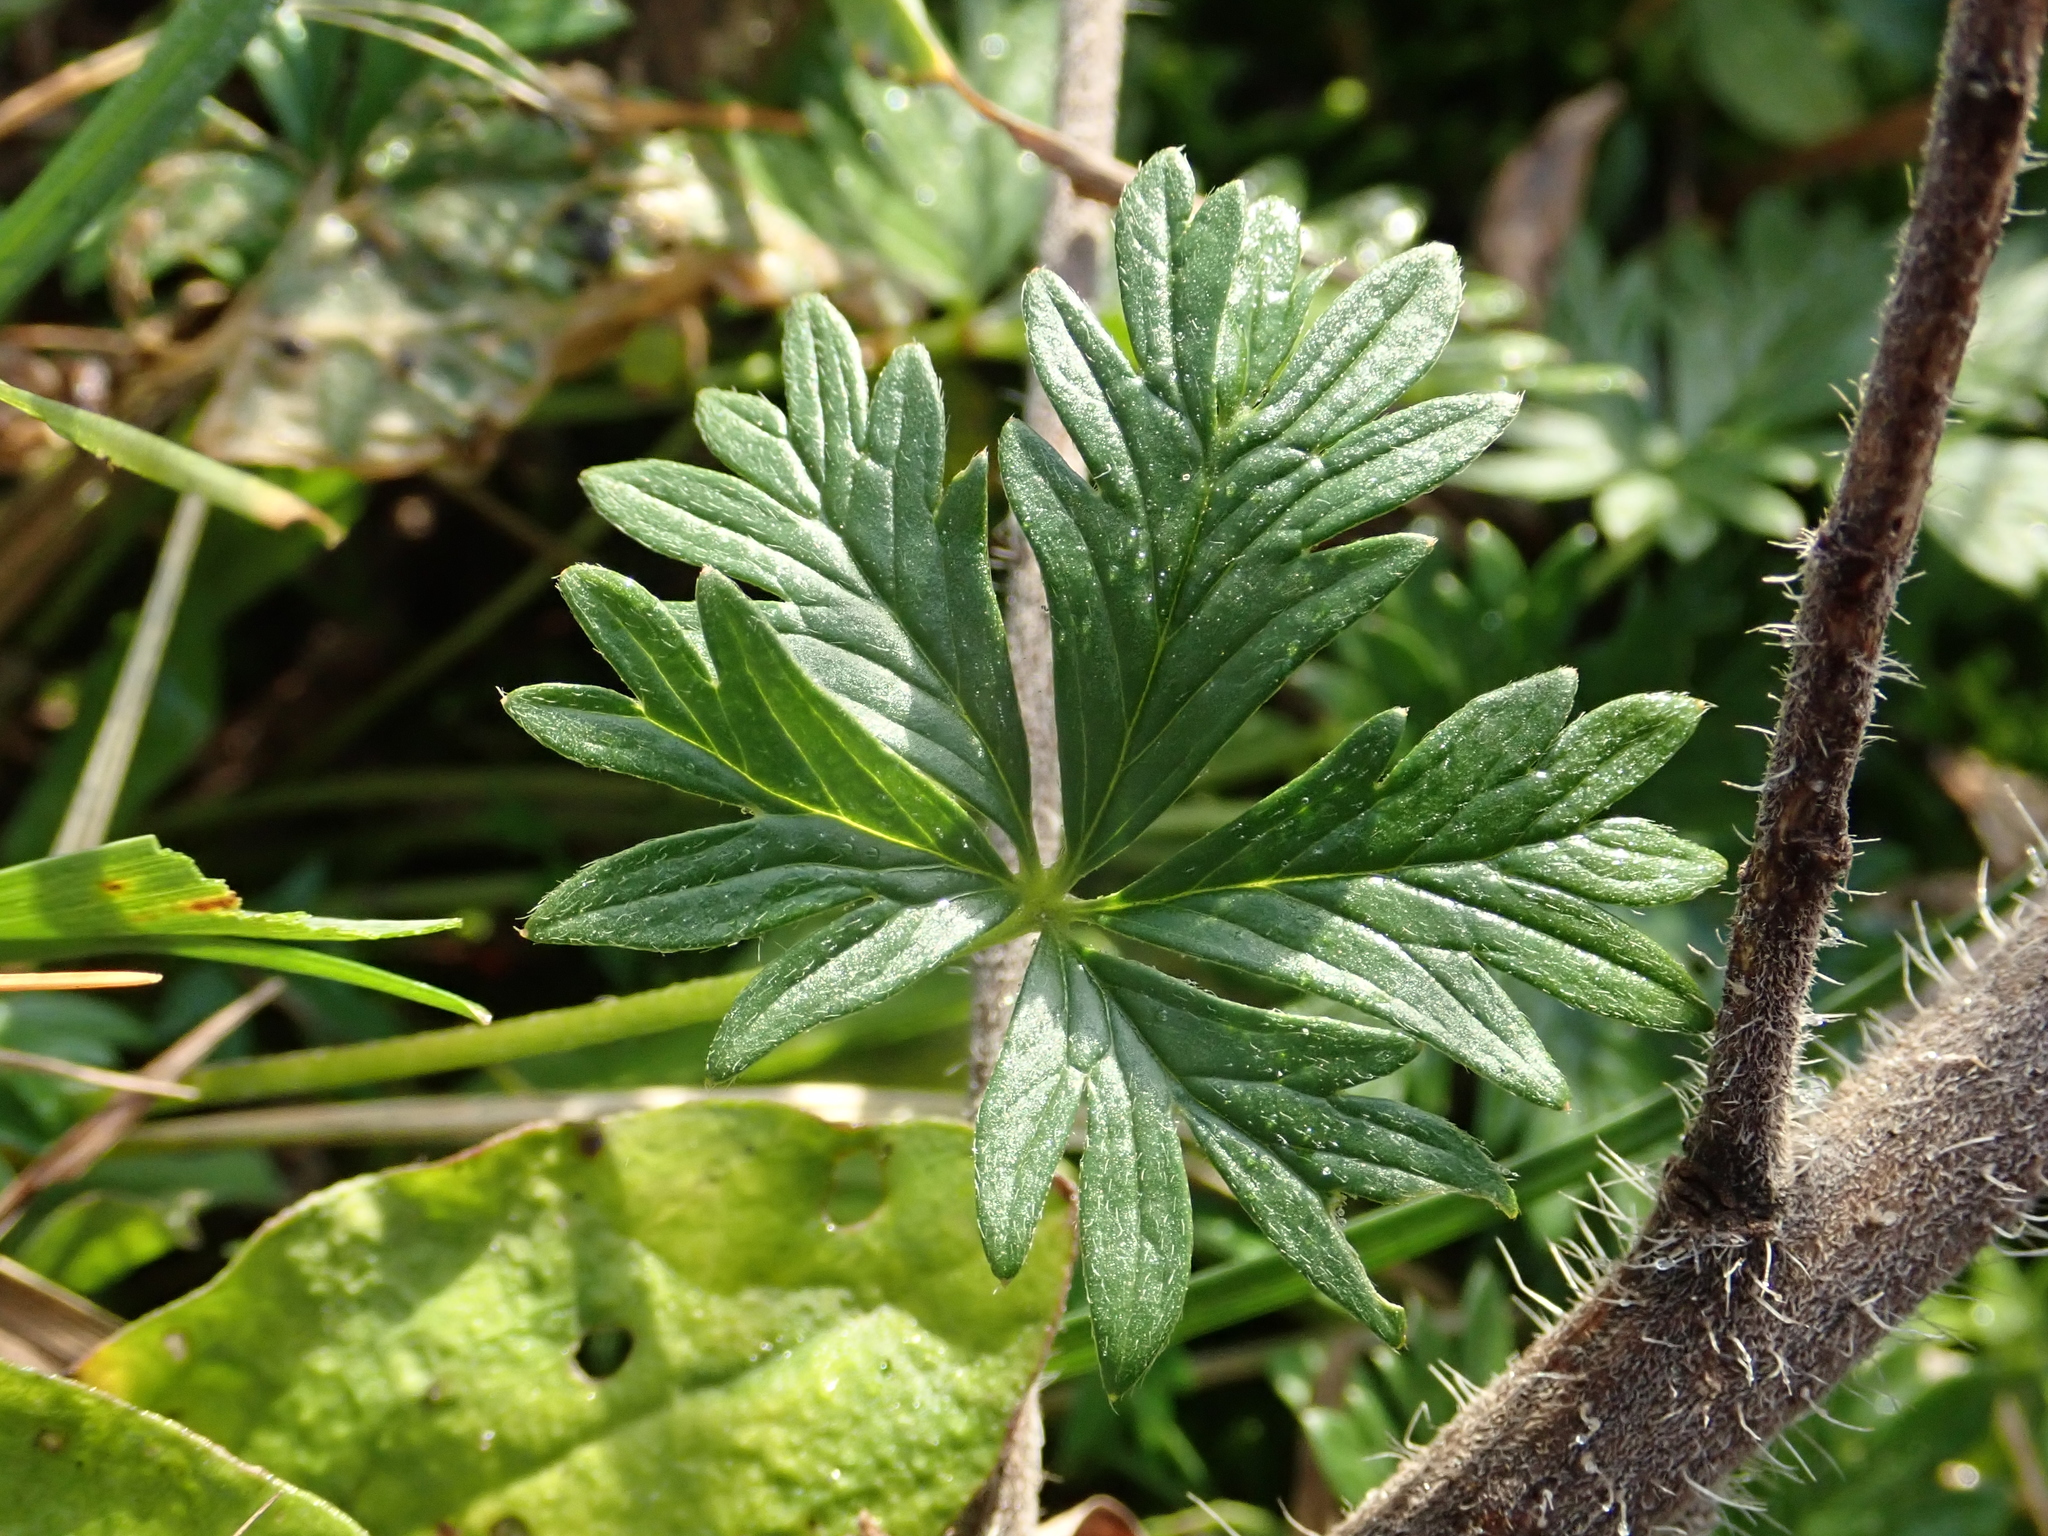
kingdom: Plantae
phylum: Tracheophyta
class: Magnoliopsida
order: Rosales
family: Rosaceae
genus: Potentilla
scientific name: Potentilla argentea
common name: Hoary cinquefoil
